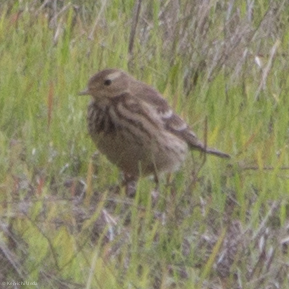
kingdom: Animalia
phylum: Chordata
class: Aves
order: Passeriformes
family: Motacillidae
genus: Anthus
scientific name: Anthus rubescens
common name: Buff-bellied pipit
